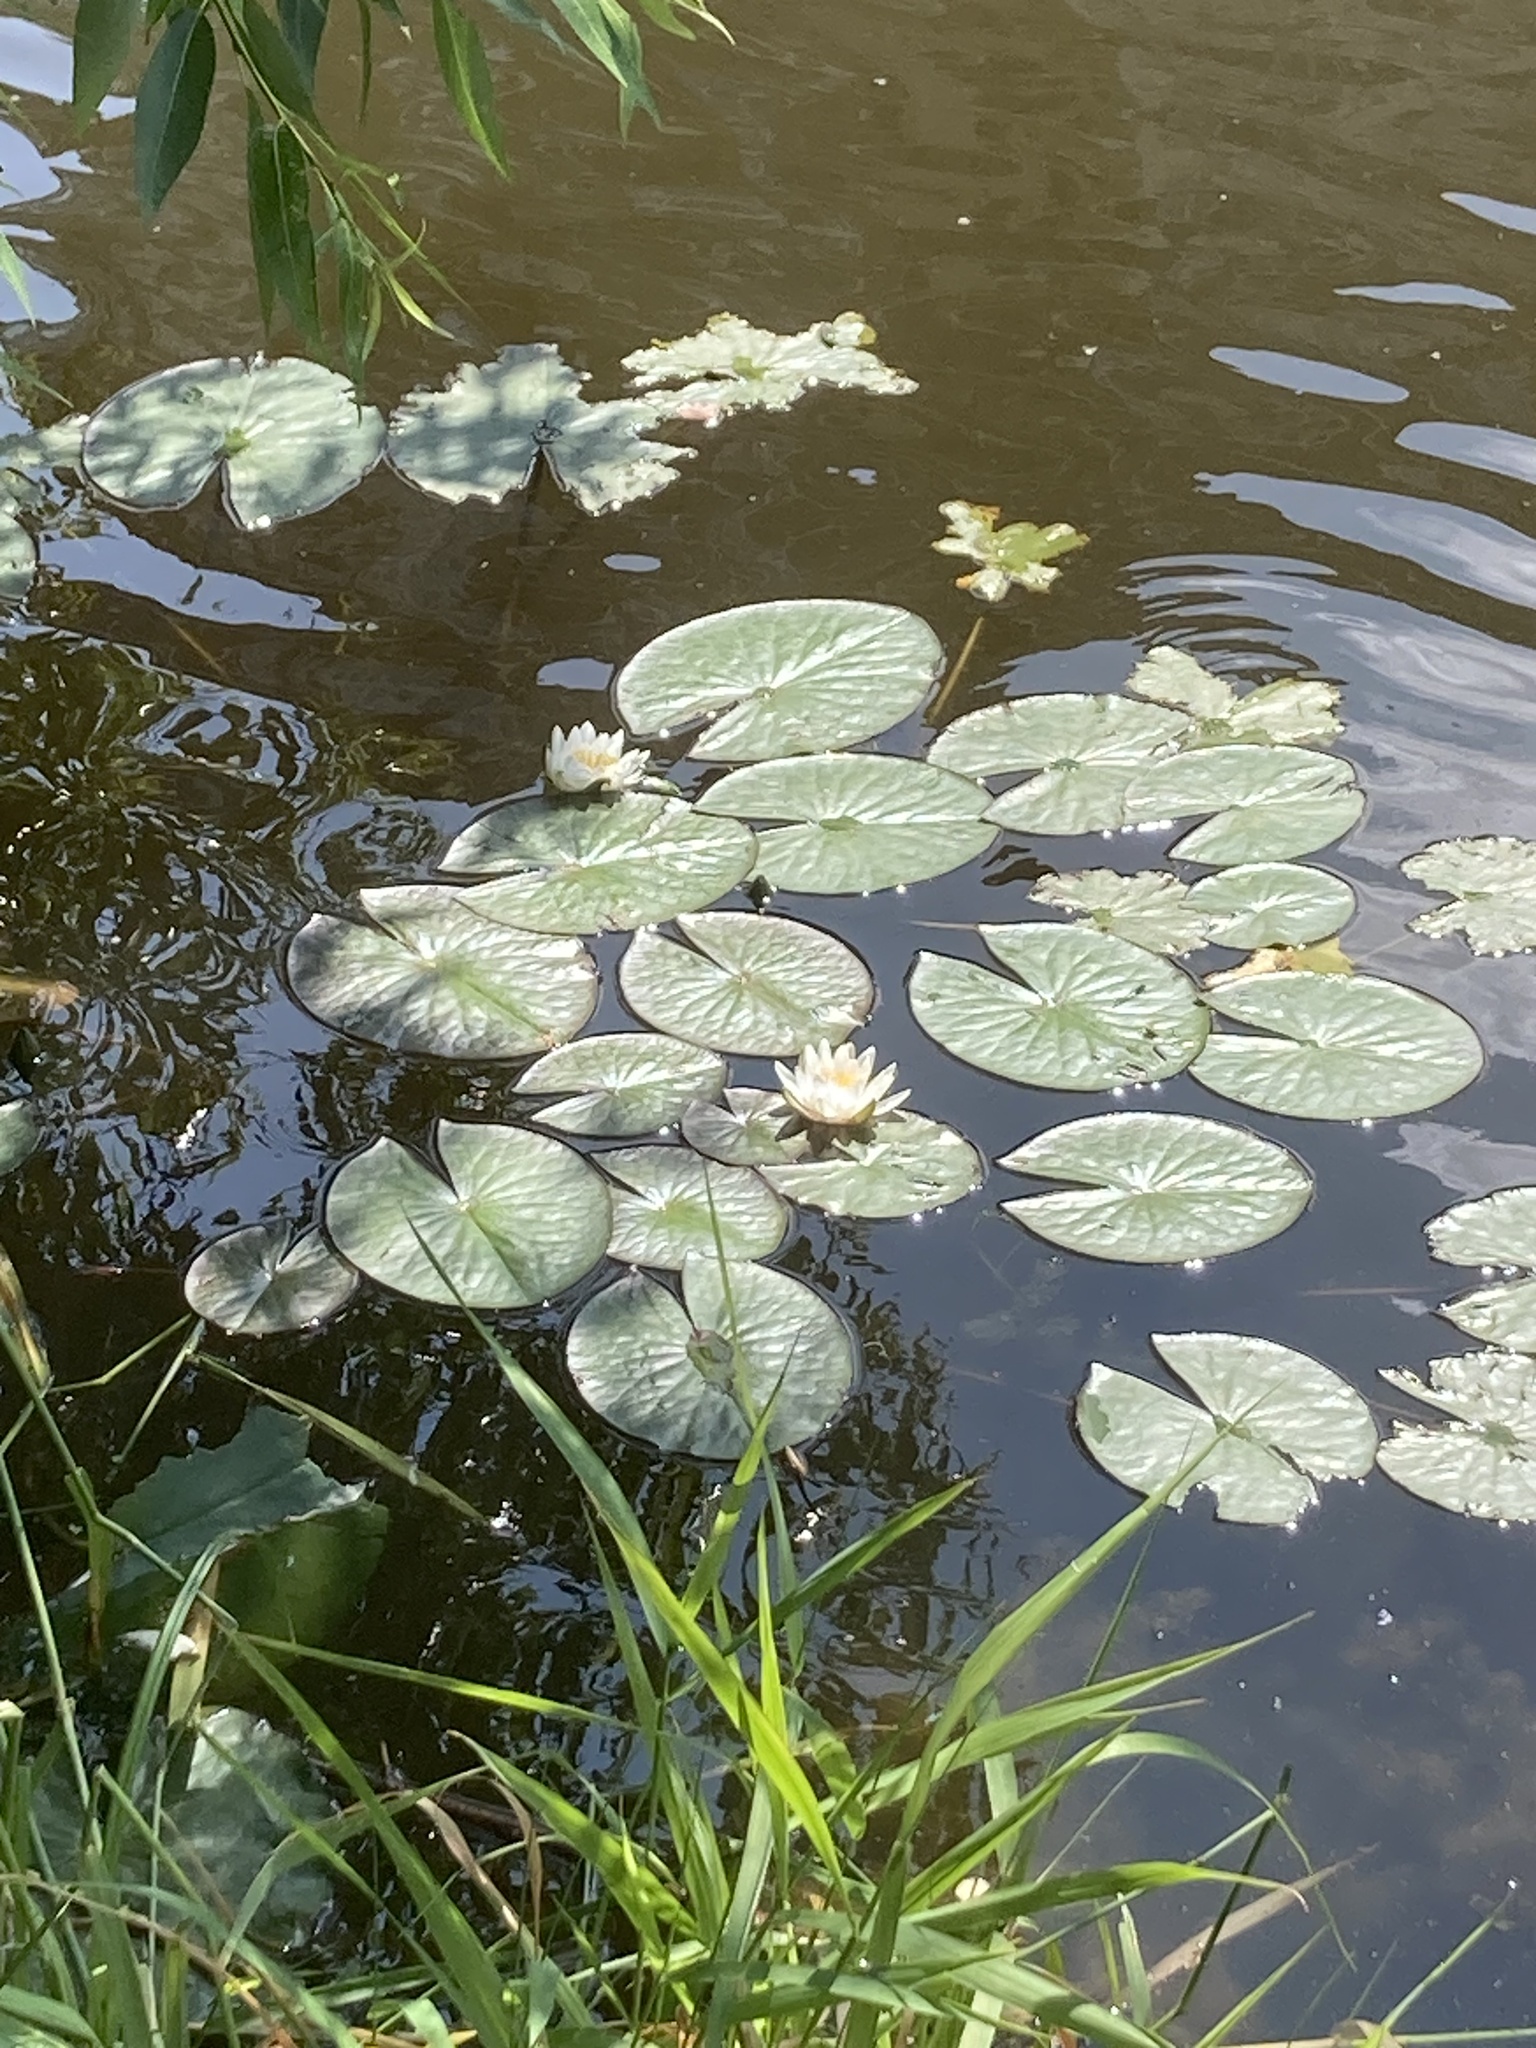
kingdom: Plantae
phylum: Tracheophyta
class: Magnoliopsida
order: Nymphaeales
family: Nymphaeaceae
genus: Nymphaea
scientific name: Nymphaea candida
